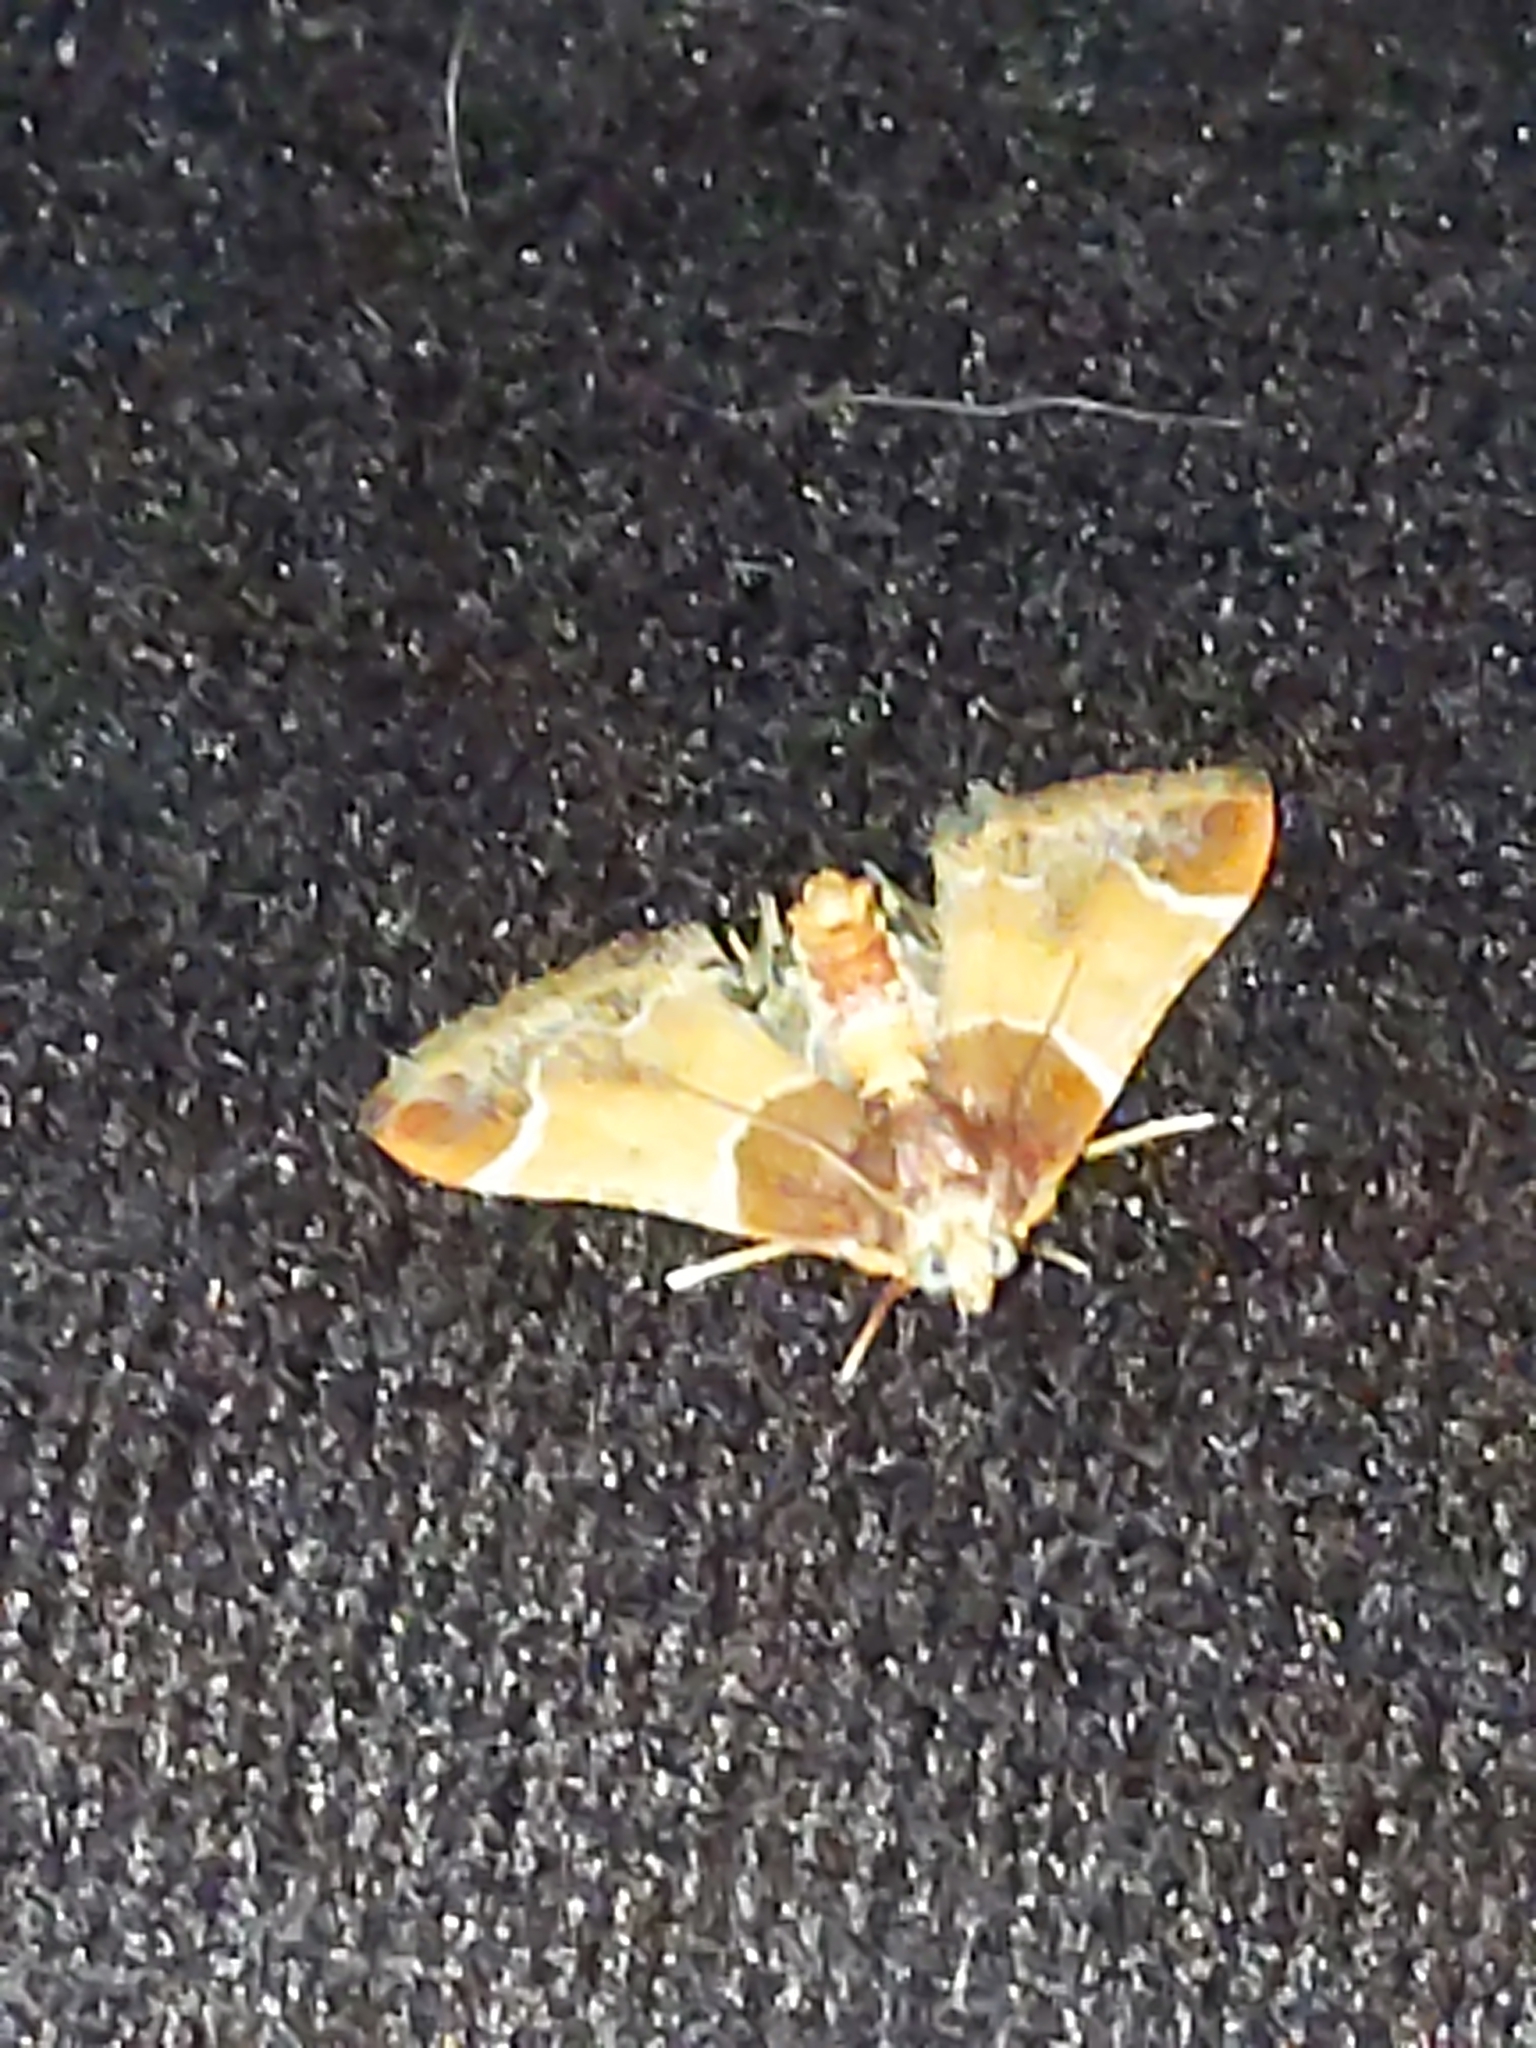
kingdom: Animalia
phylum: Arthropoda
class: Insecta
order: Lepidoptera
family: Pyralidae
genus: Pyralis
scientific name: Pyralis farinalis
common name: Meal moth
